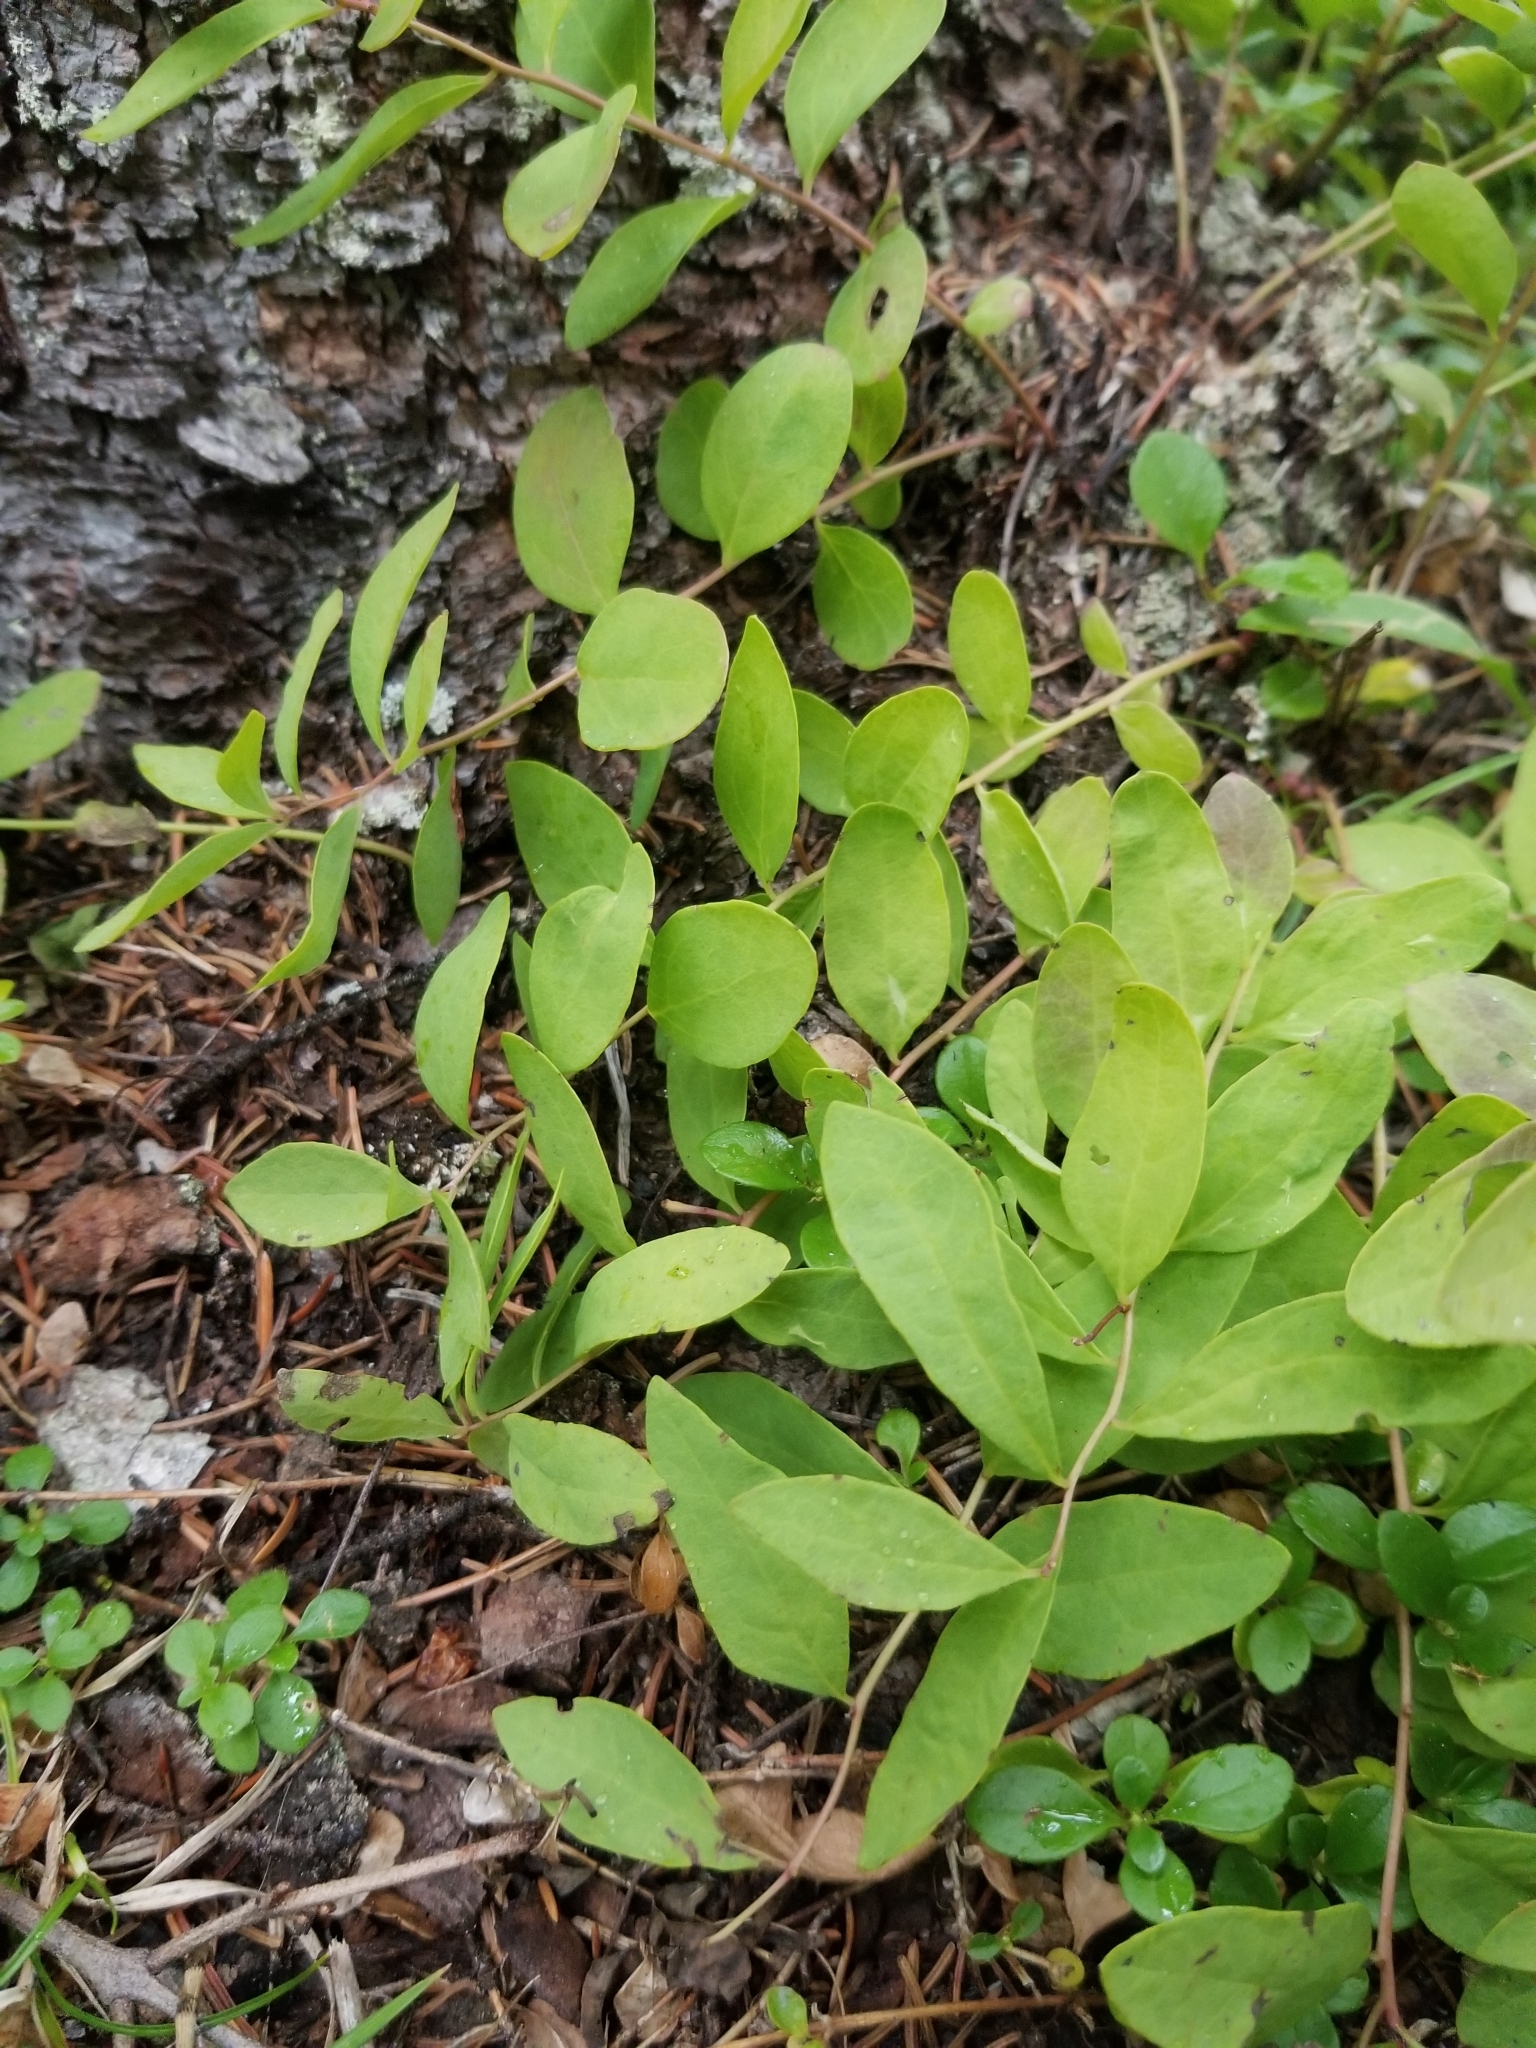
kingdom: Plantae
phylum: Tracheophyta
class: Magnoliopsida
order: Santalales
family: Comandraceae
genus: Geocaulon
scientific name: Geocaulon lividum
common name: Earthberry
